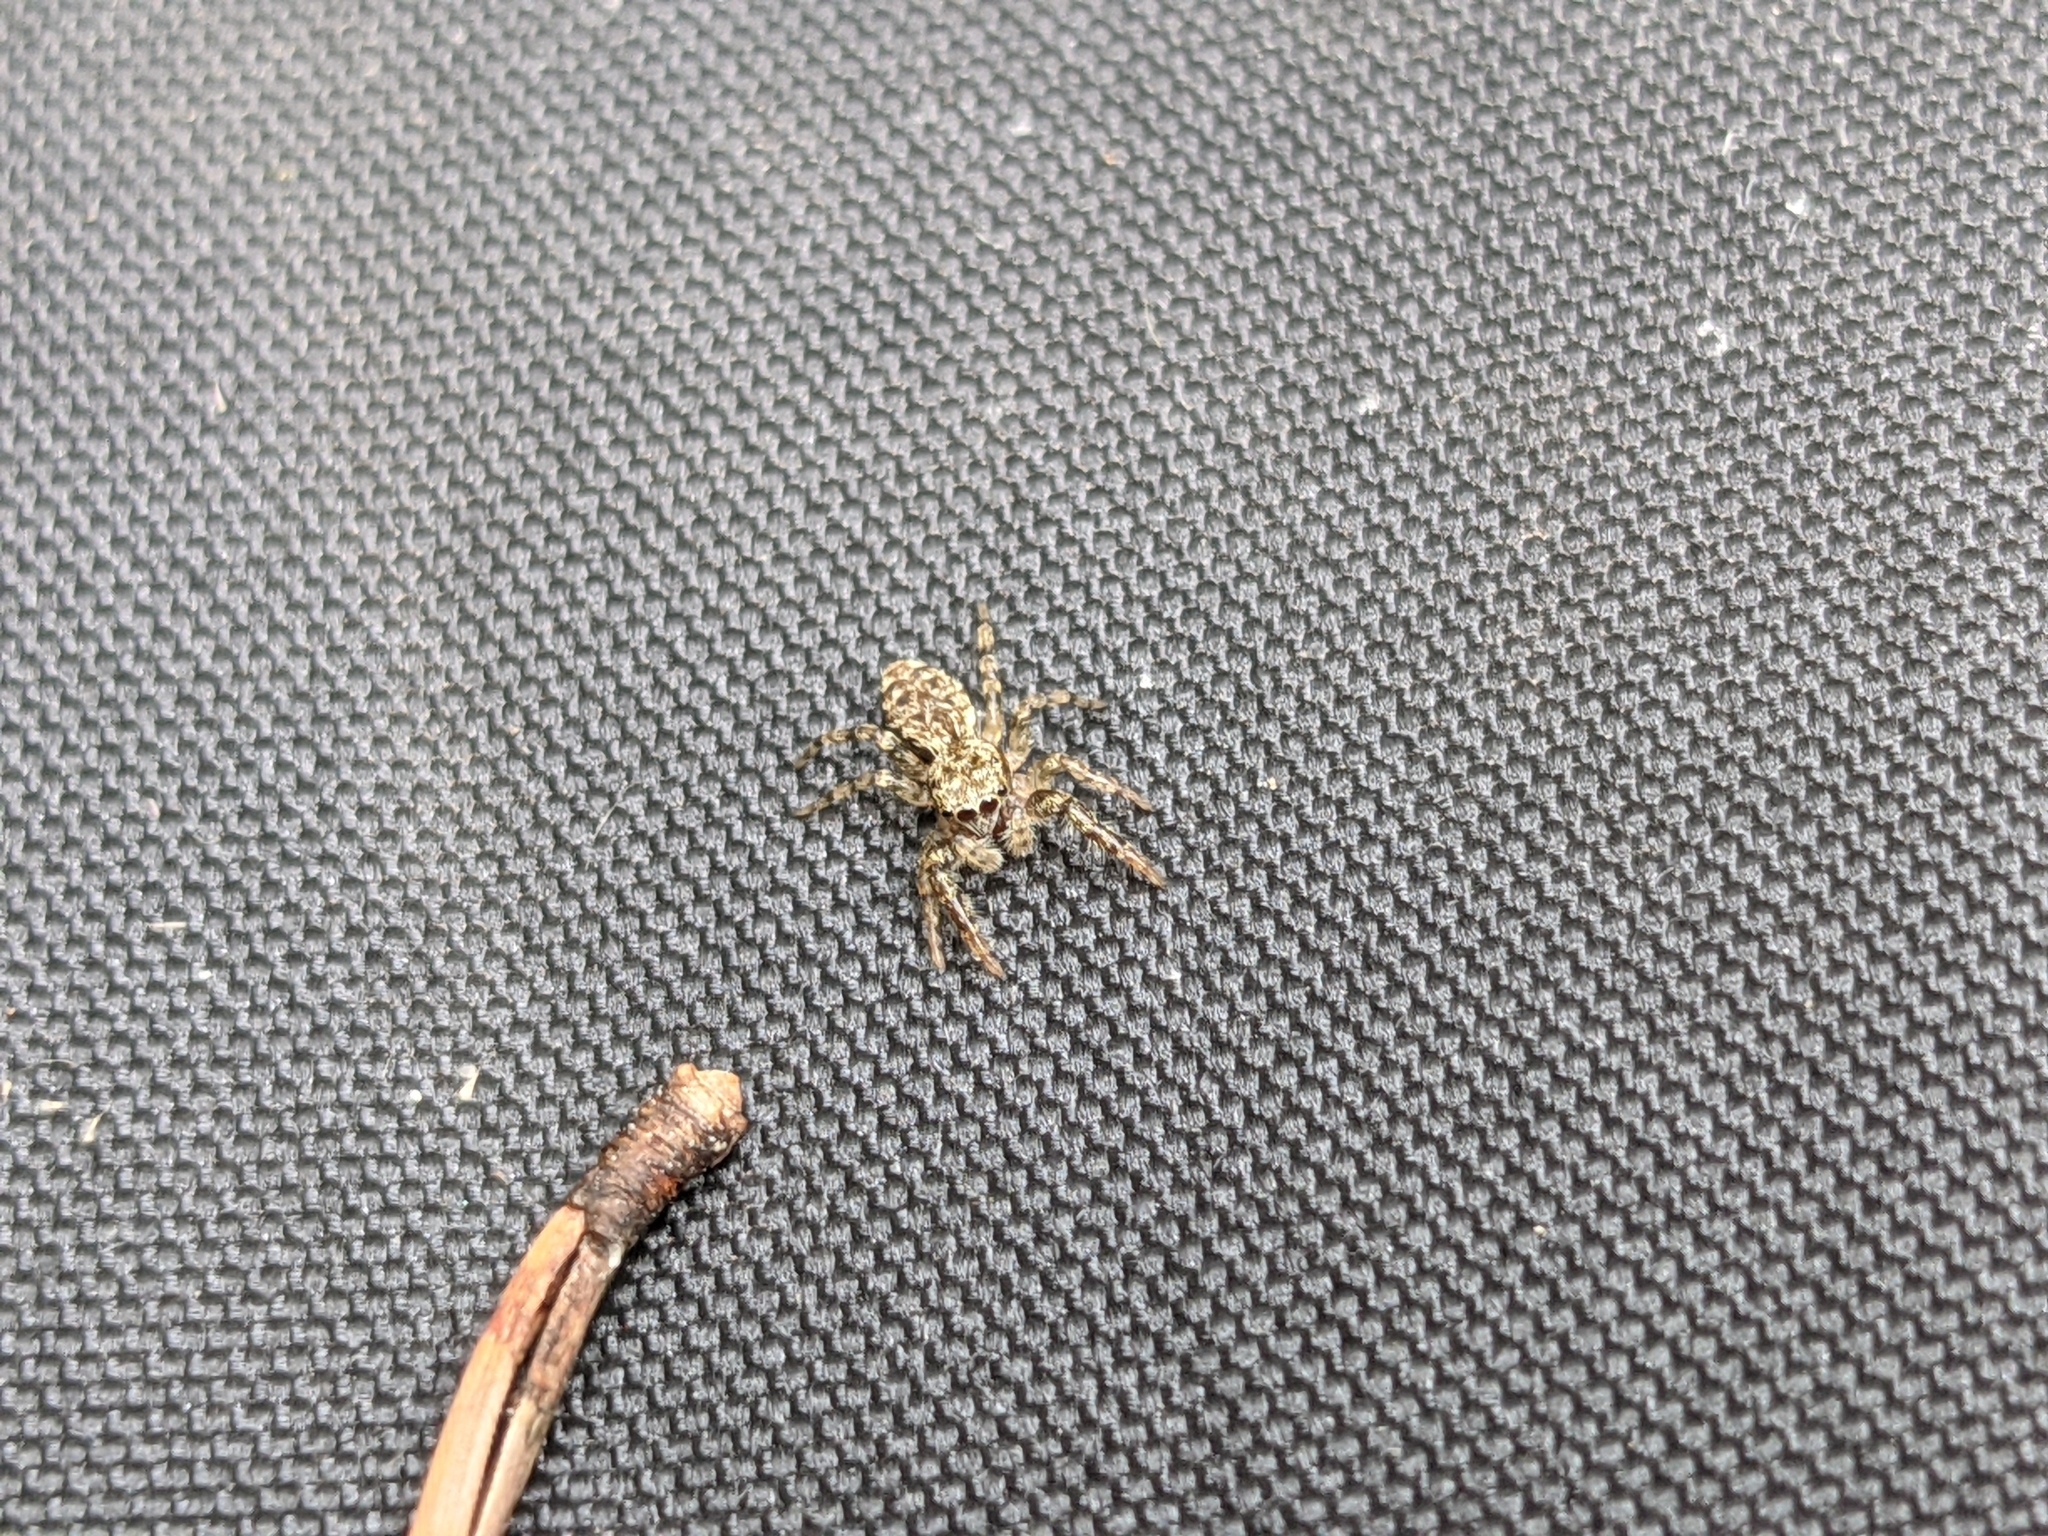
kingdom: Animalia
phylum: Arthropoda
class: Arachnida
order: Araneae
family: Salticidae
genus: Marpissa
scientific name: Marpissa muscosa
